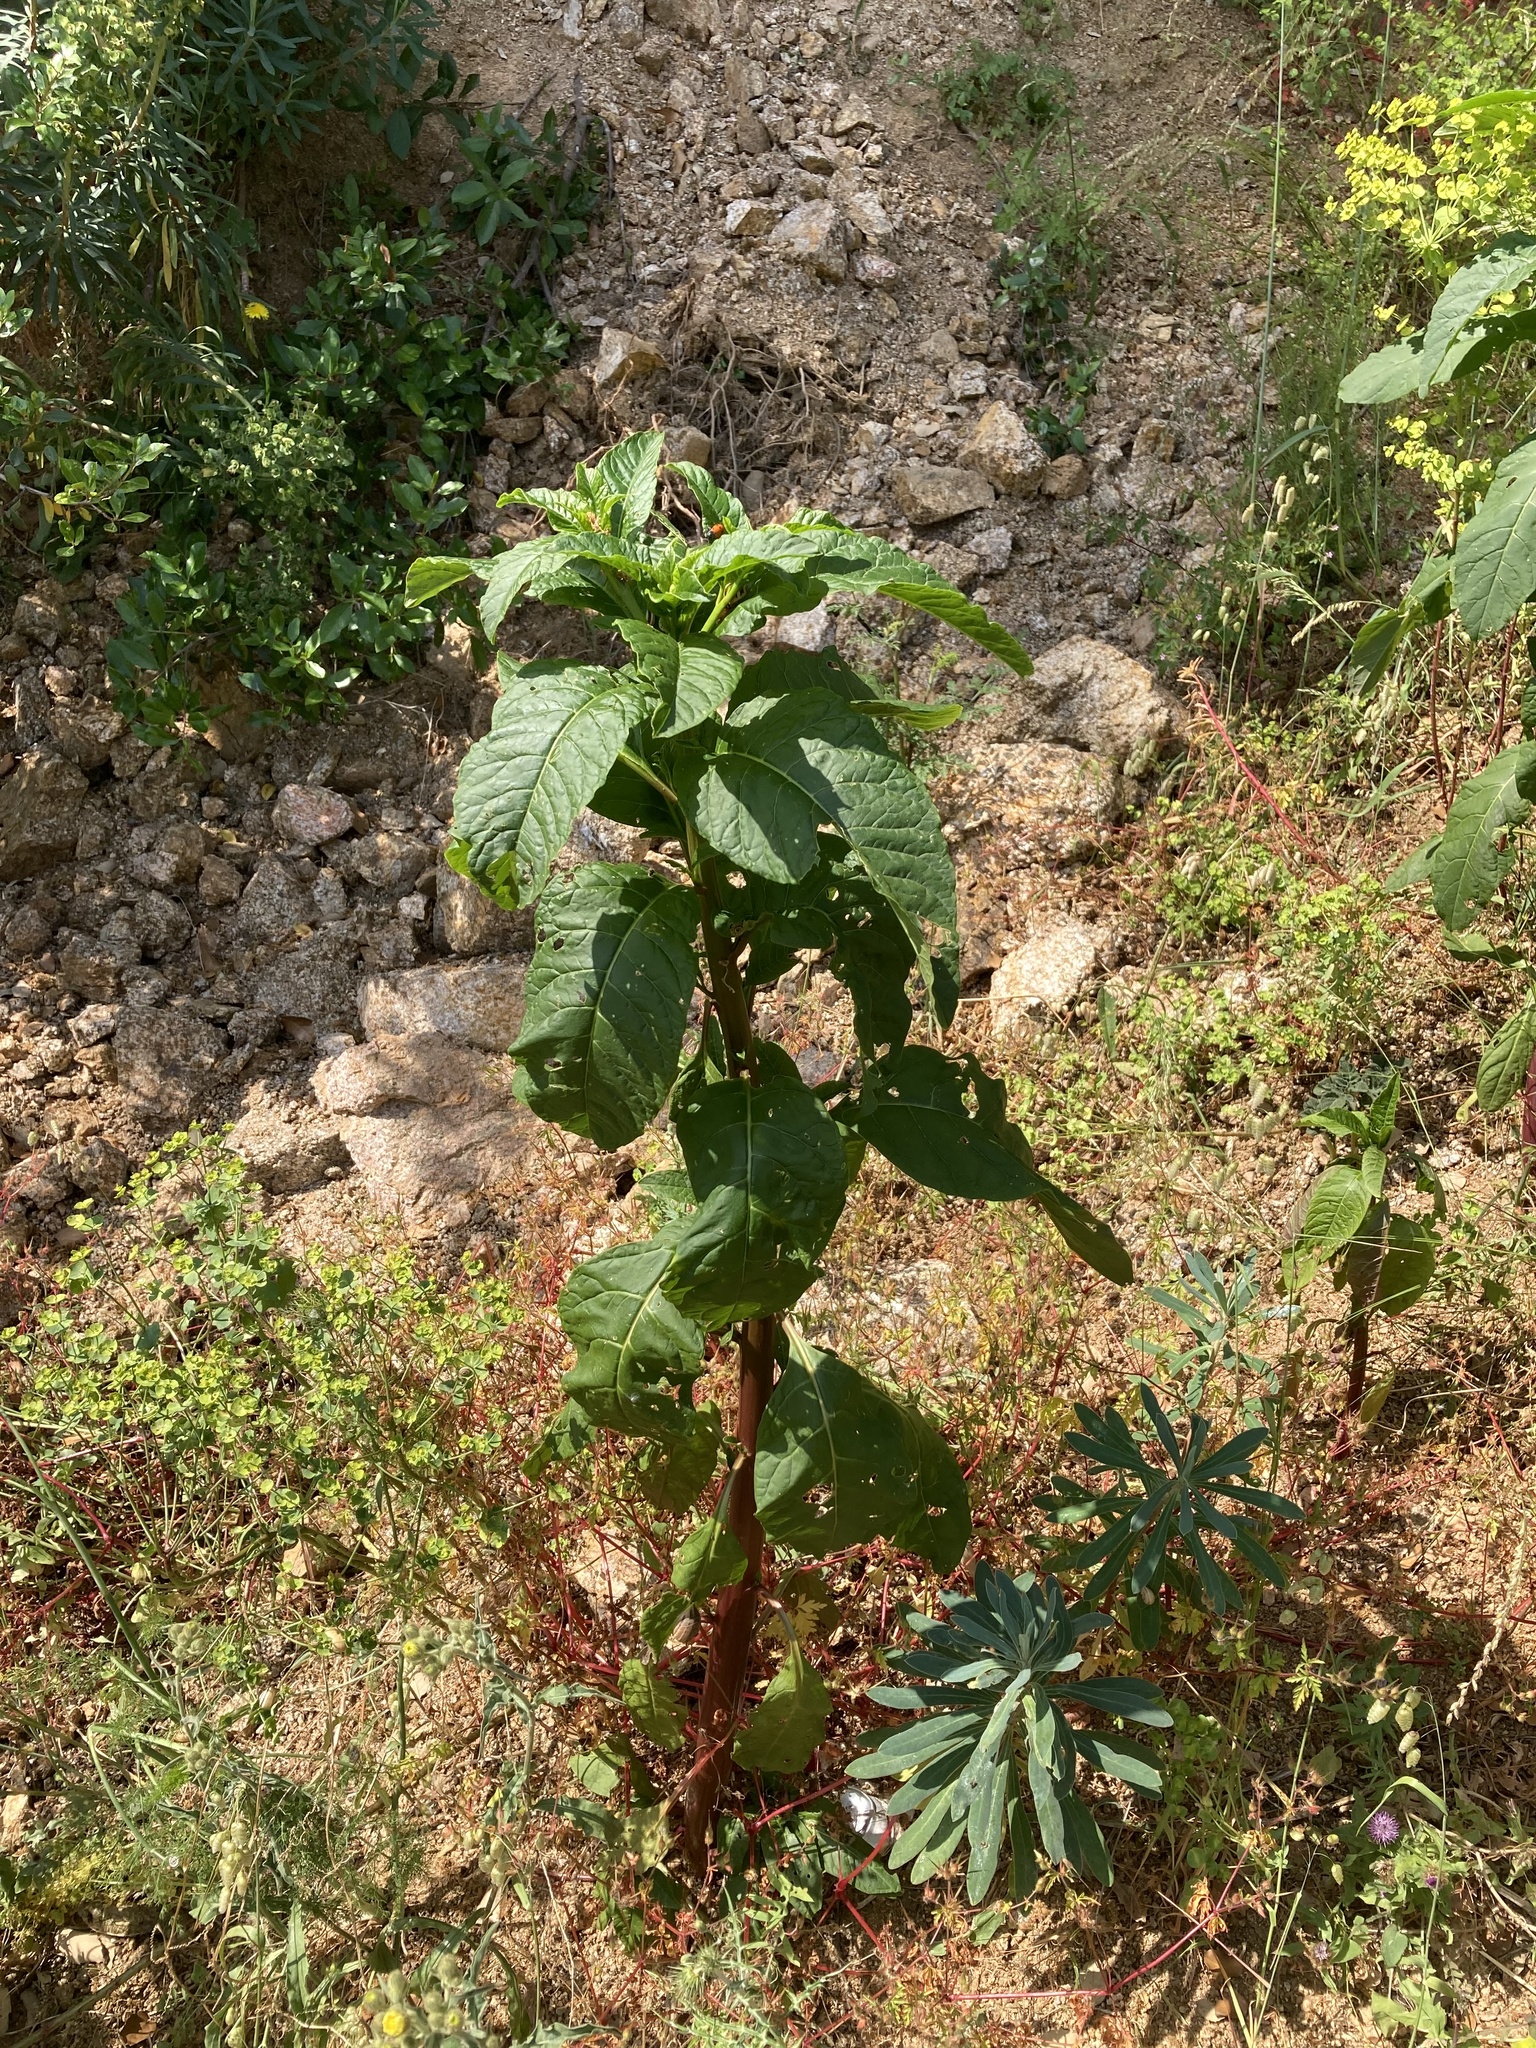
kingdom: Plantae
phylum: Tracheophyta
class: Magnoliopsida
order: Caryophyllales
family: Phytolaccaceae
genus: Phytolacca
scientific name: Phytolacca americana
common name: American pokeweed
